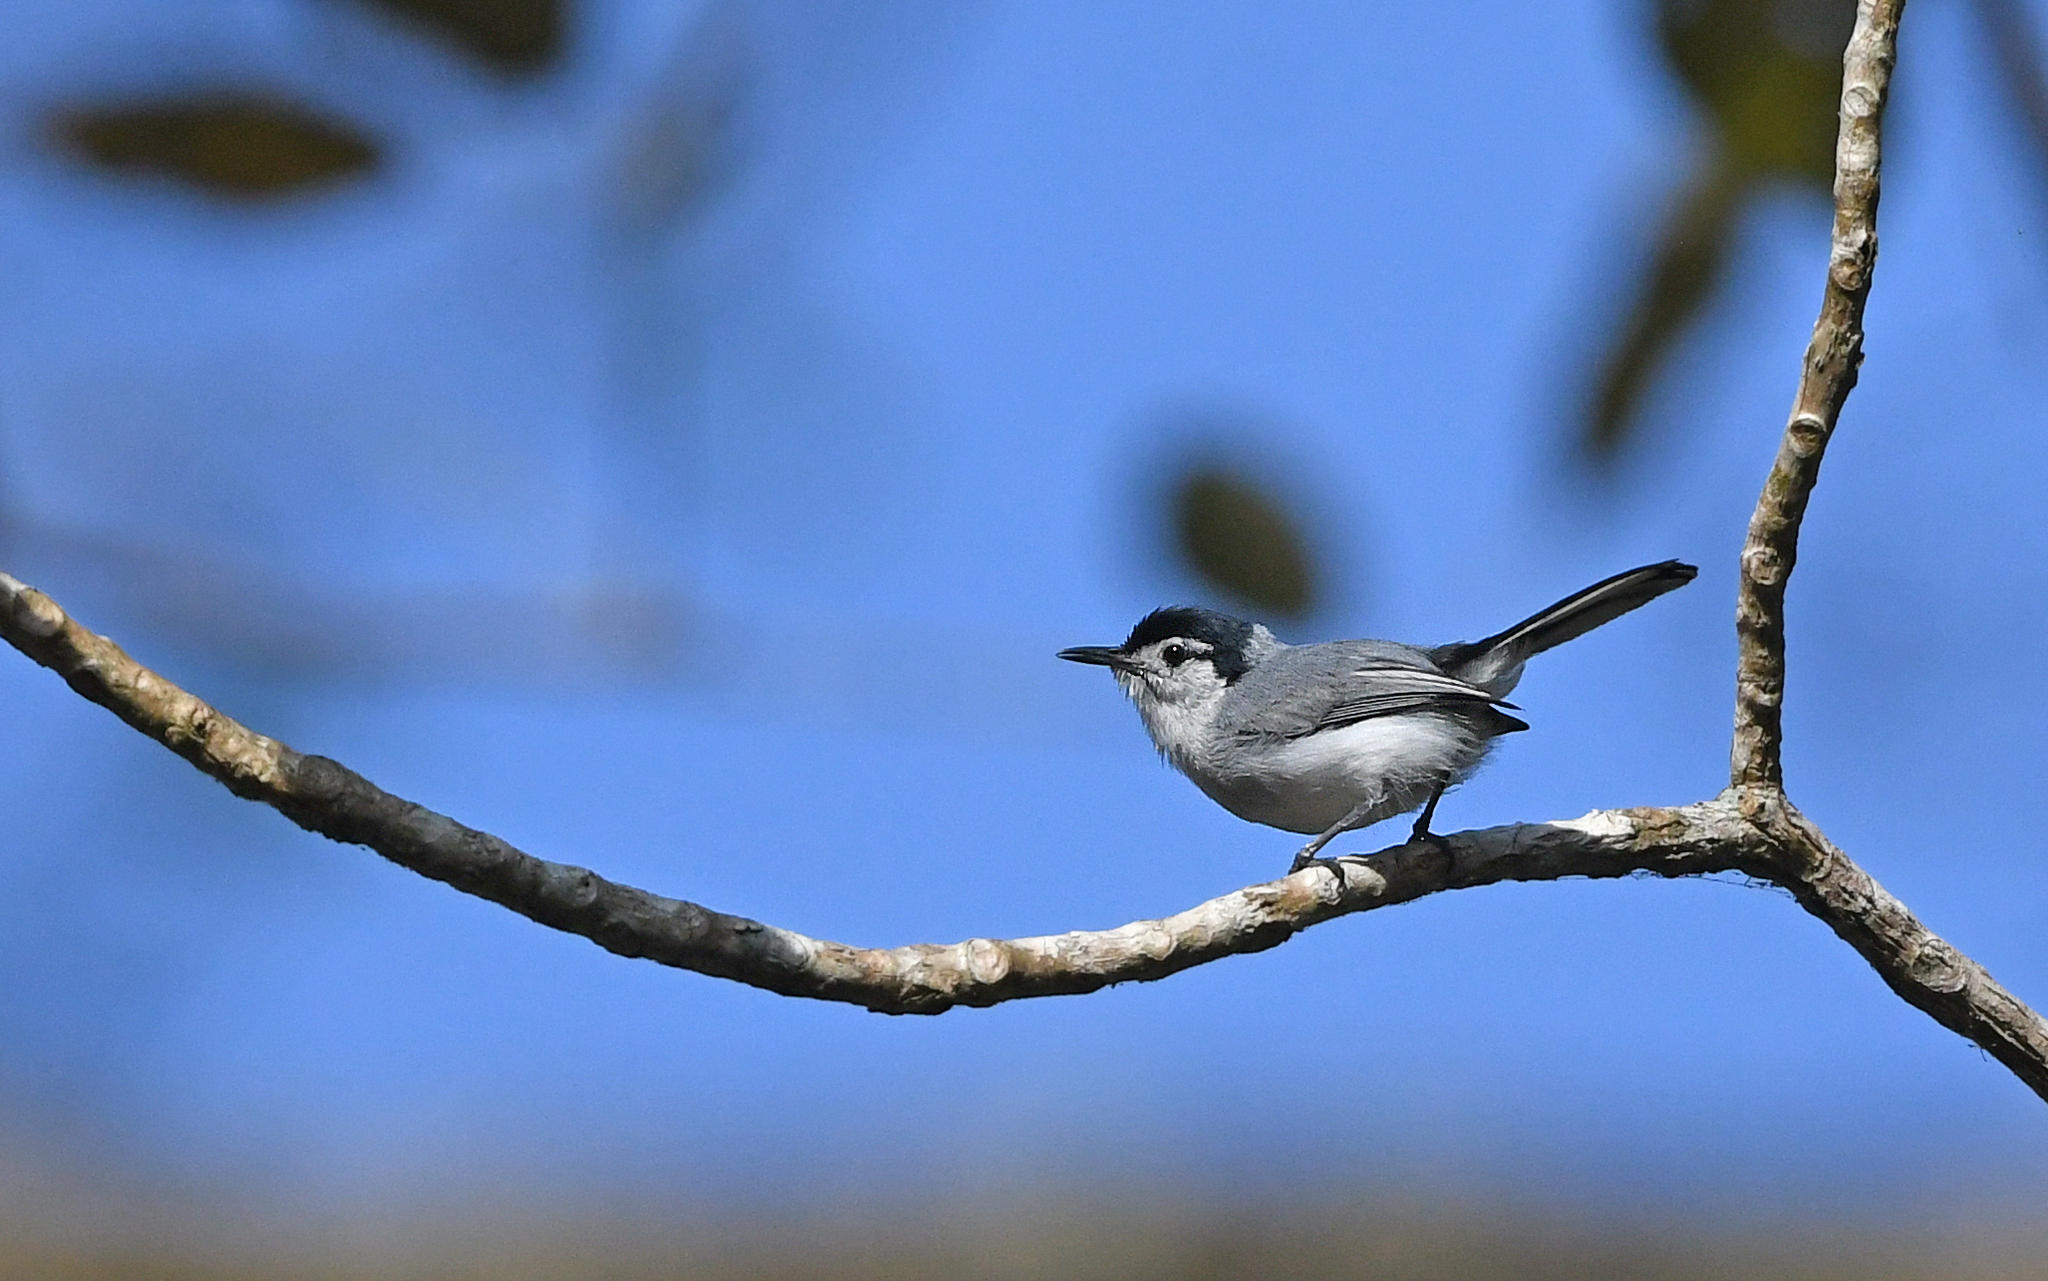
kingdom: Animalia
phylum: Chordata
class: Aves
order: Passeriformes
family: Polioptilidae
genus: Polioptila
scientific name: Polioptila plumbea
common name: Tropical gnatcatcher
